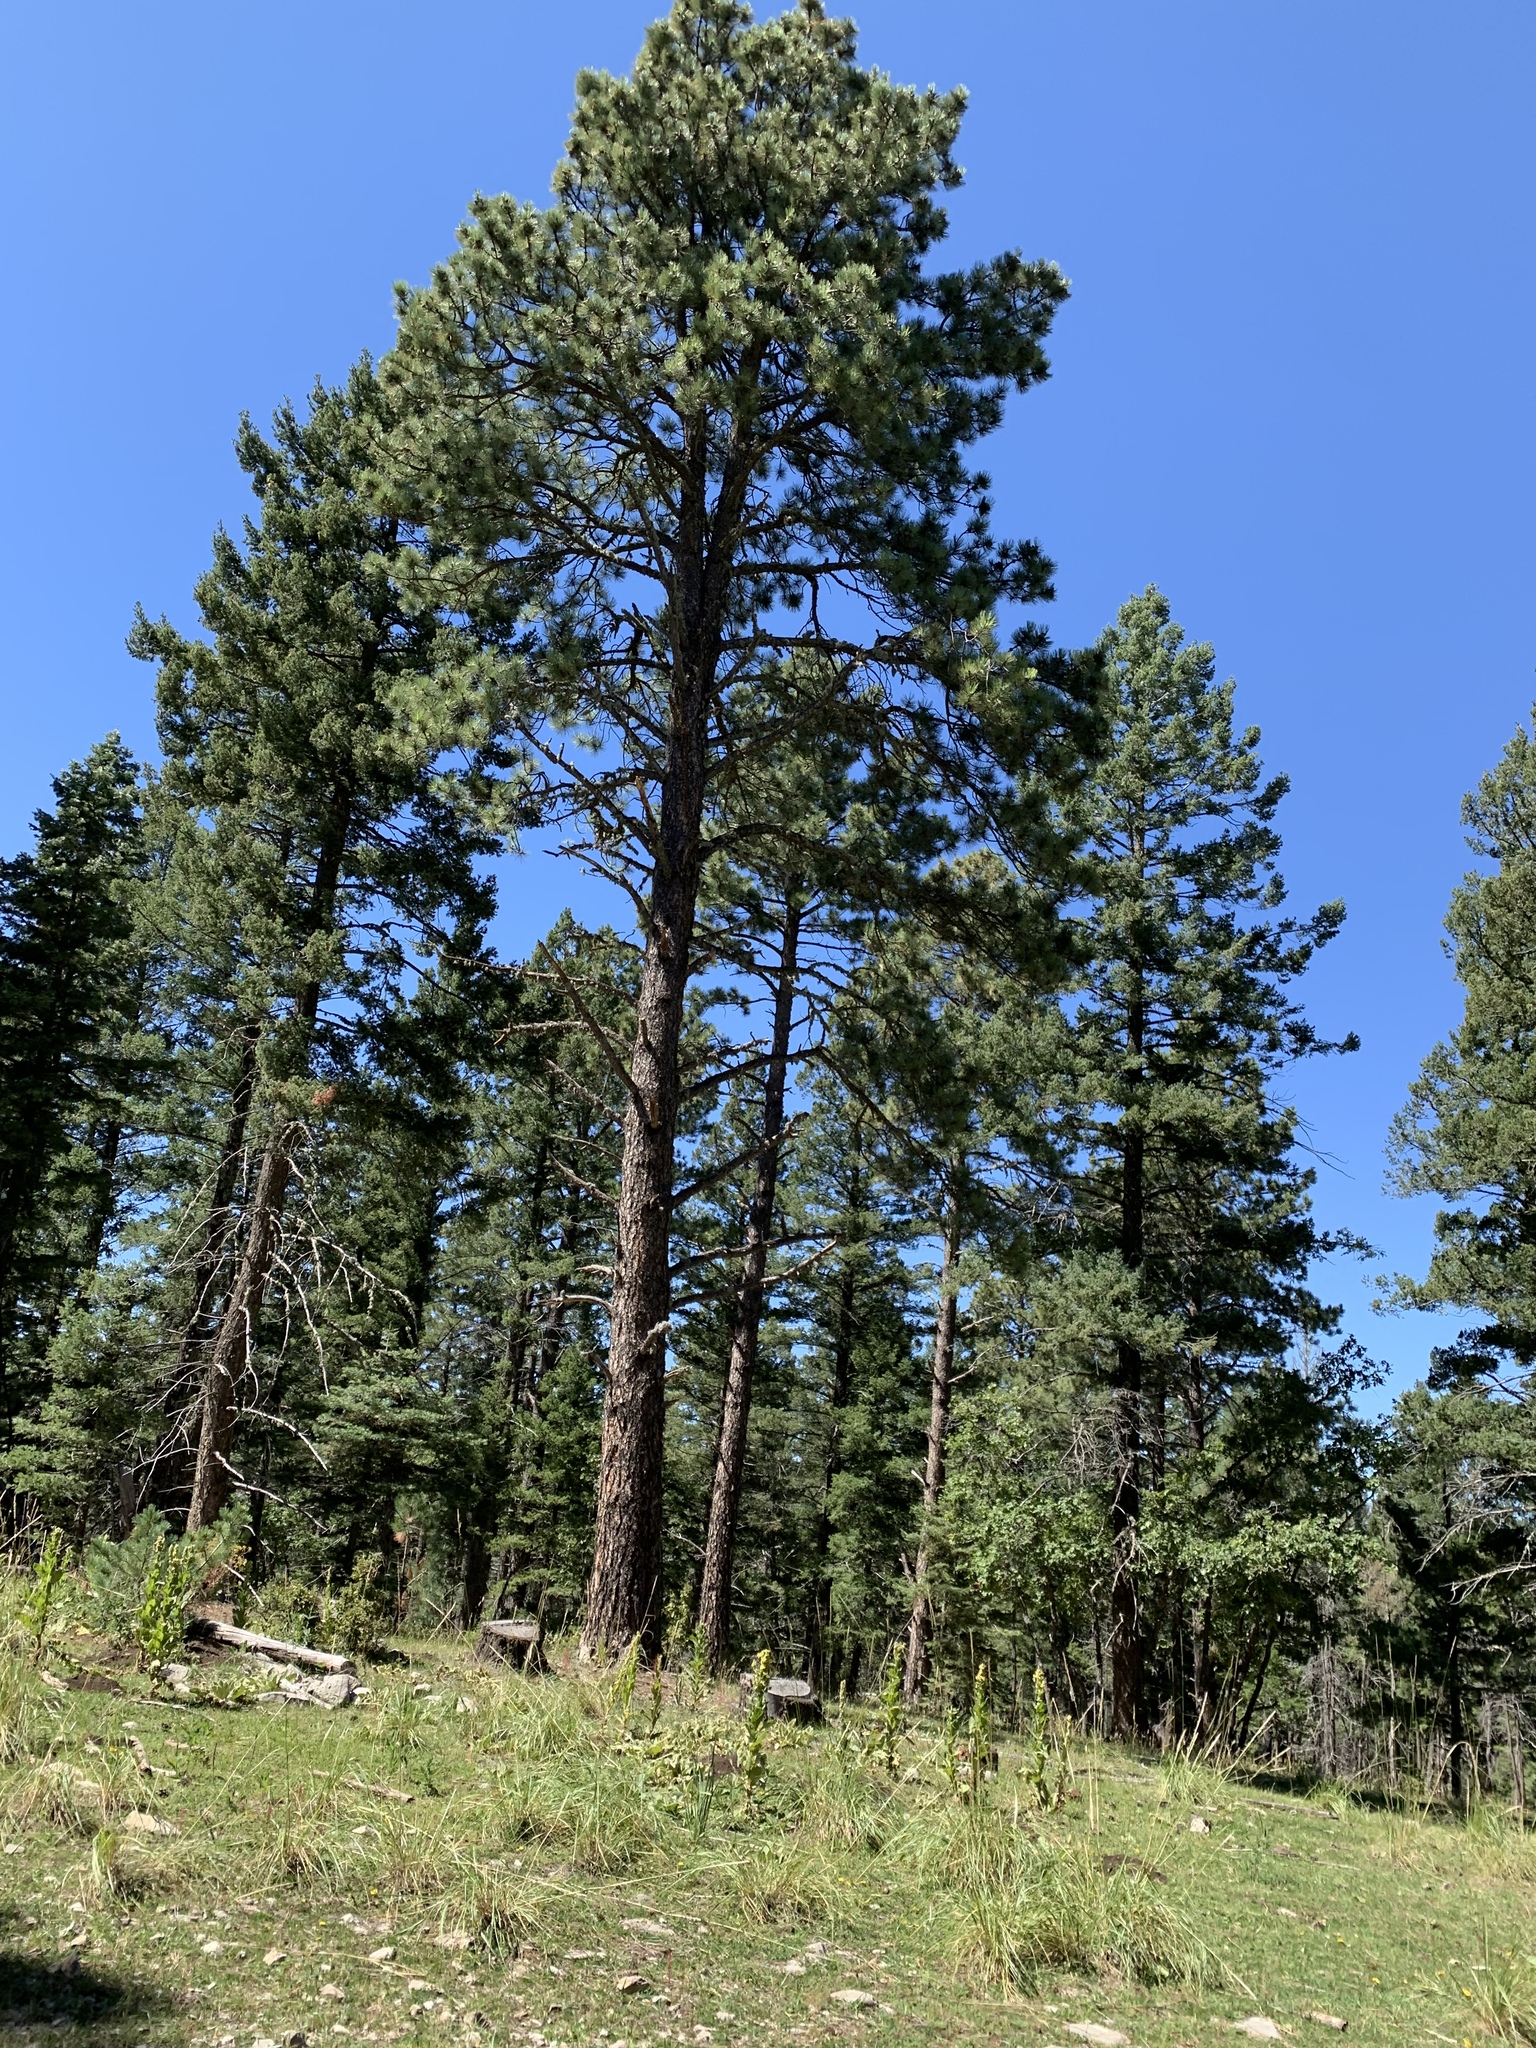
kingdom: Plantae
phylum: Tracheophyta
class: Pinopsida
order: Pinales
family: Pinaceae
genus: Pinus
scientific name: Pinus ponderosa
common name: Western yellow-pine
